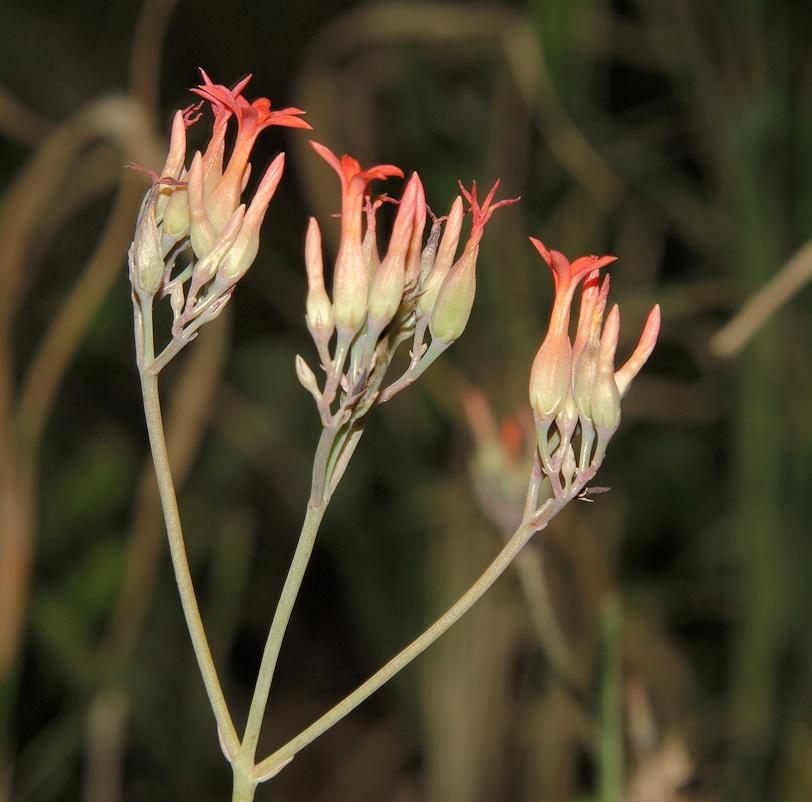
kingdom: Plantae
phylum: Tracheophyta
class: Magnoliopsida
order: Saxifragales
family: Crassulaceae
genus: Kalanchoe
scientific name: Kalanchoe rotundifolia
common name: Common kalanchoe
